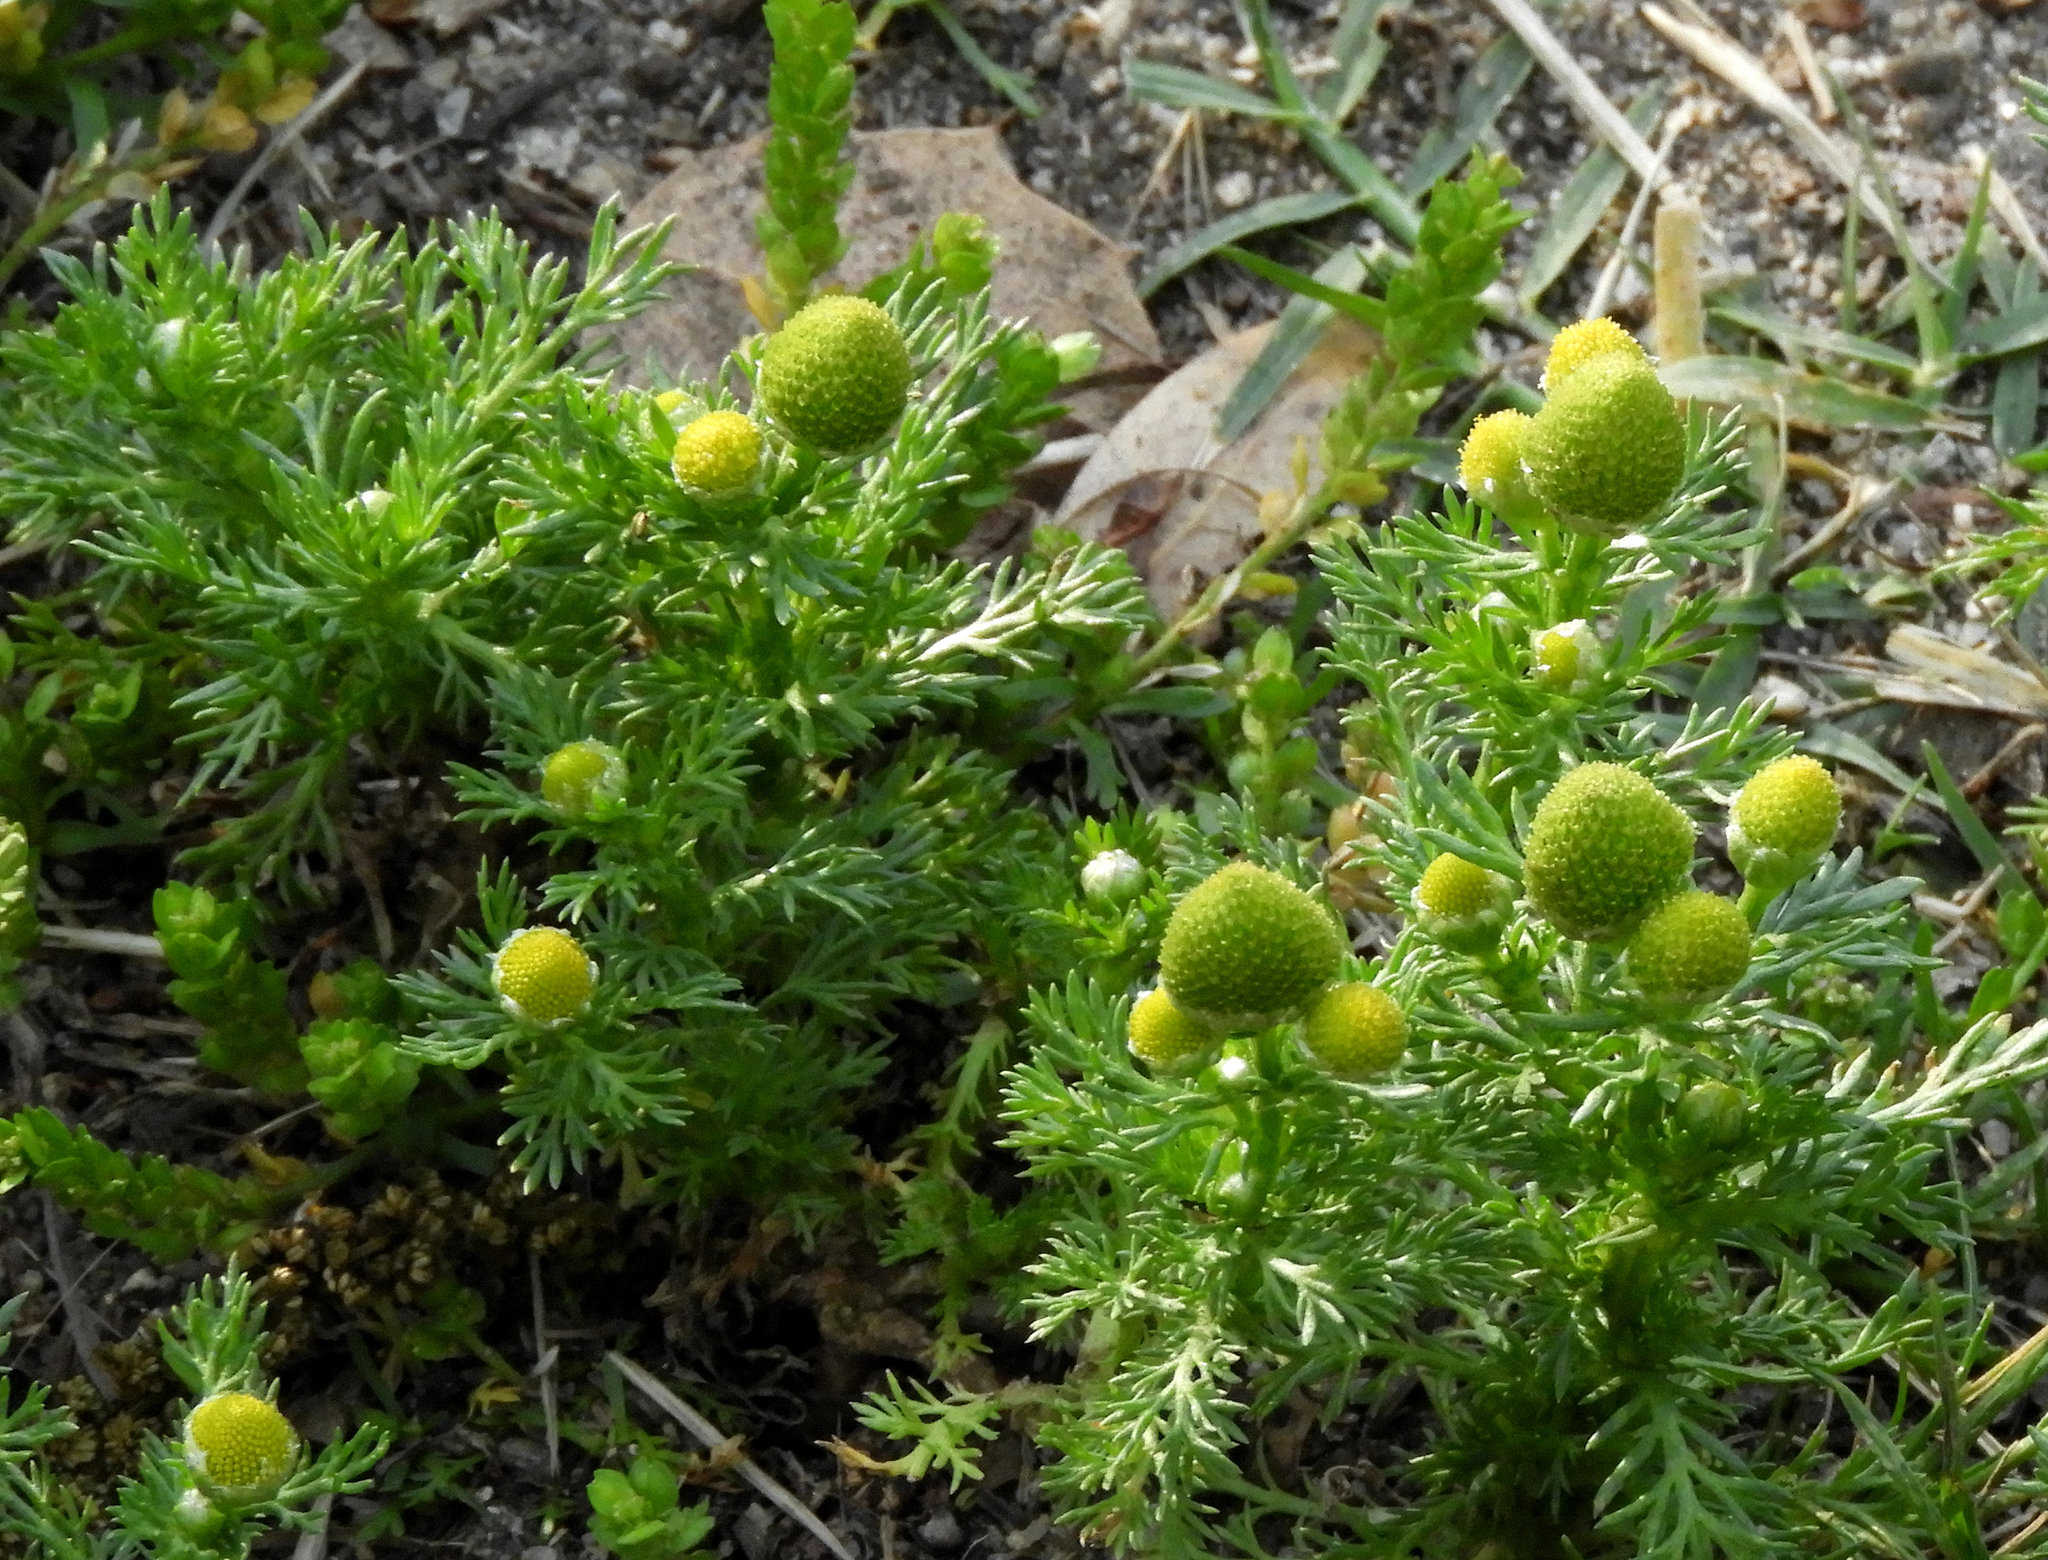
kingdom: Plantae
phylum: Tracheophyta
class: Magnoliopsida
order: Asterales
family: Asteraceae
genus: Matricaria
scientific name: Matricaria discoidea
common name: Disc mayweed
